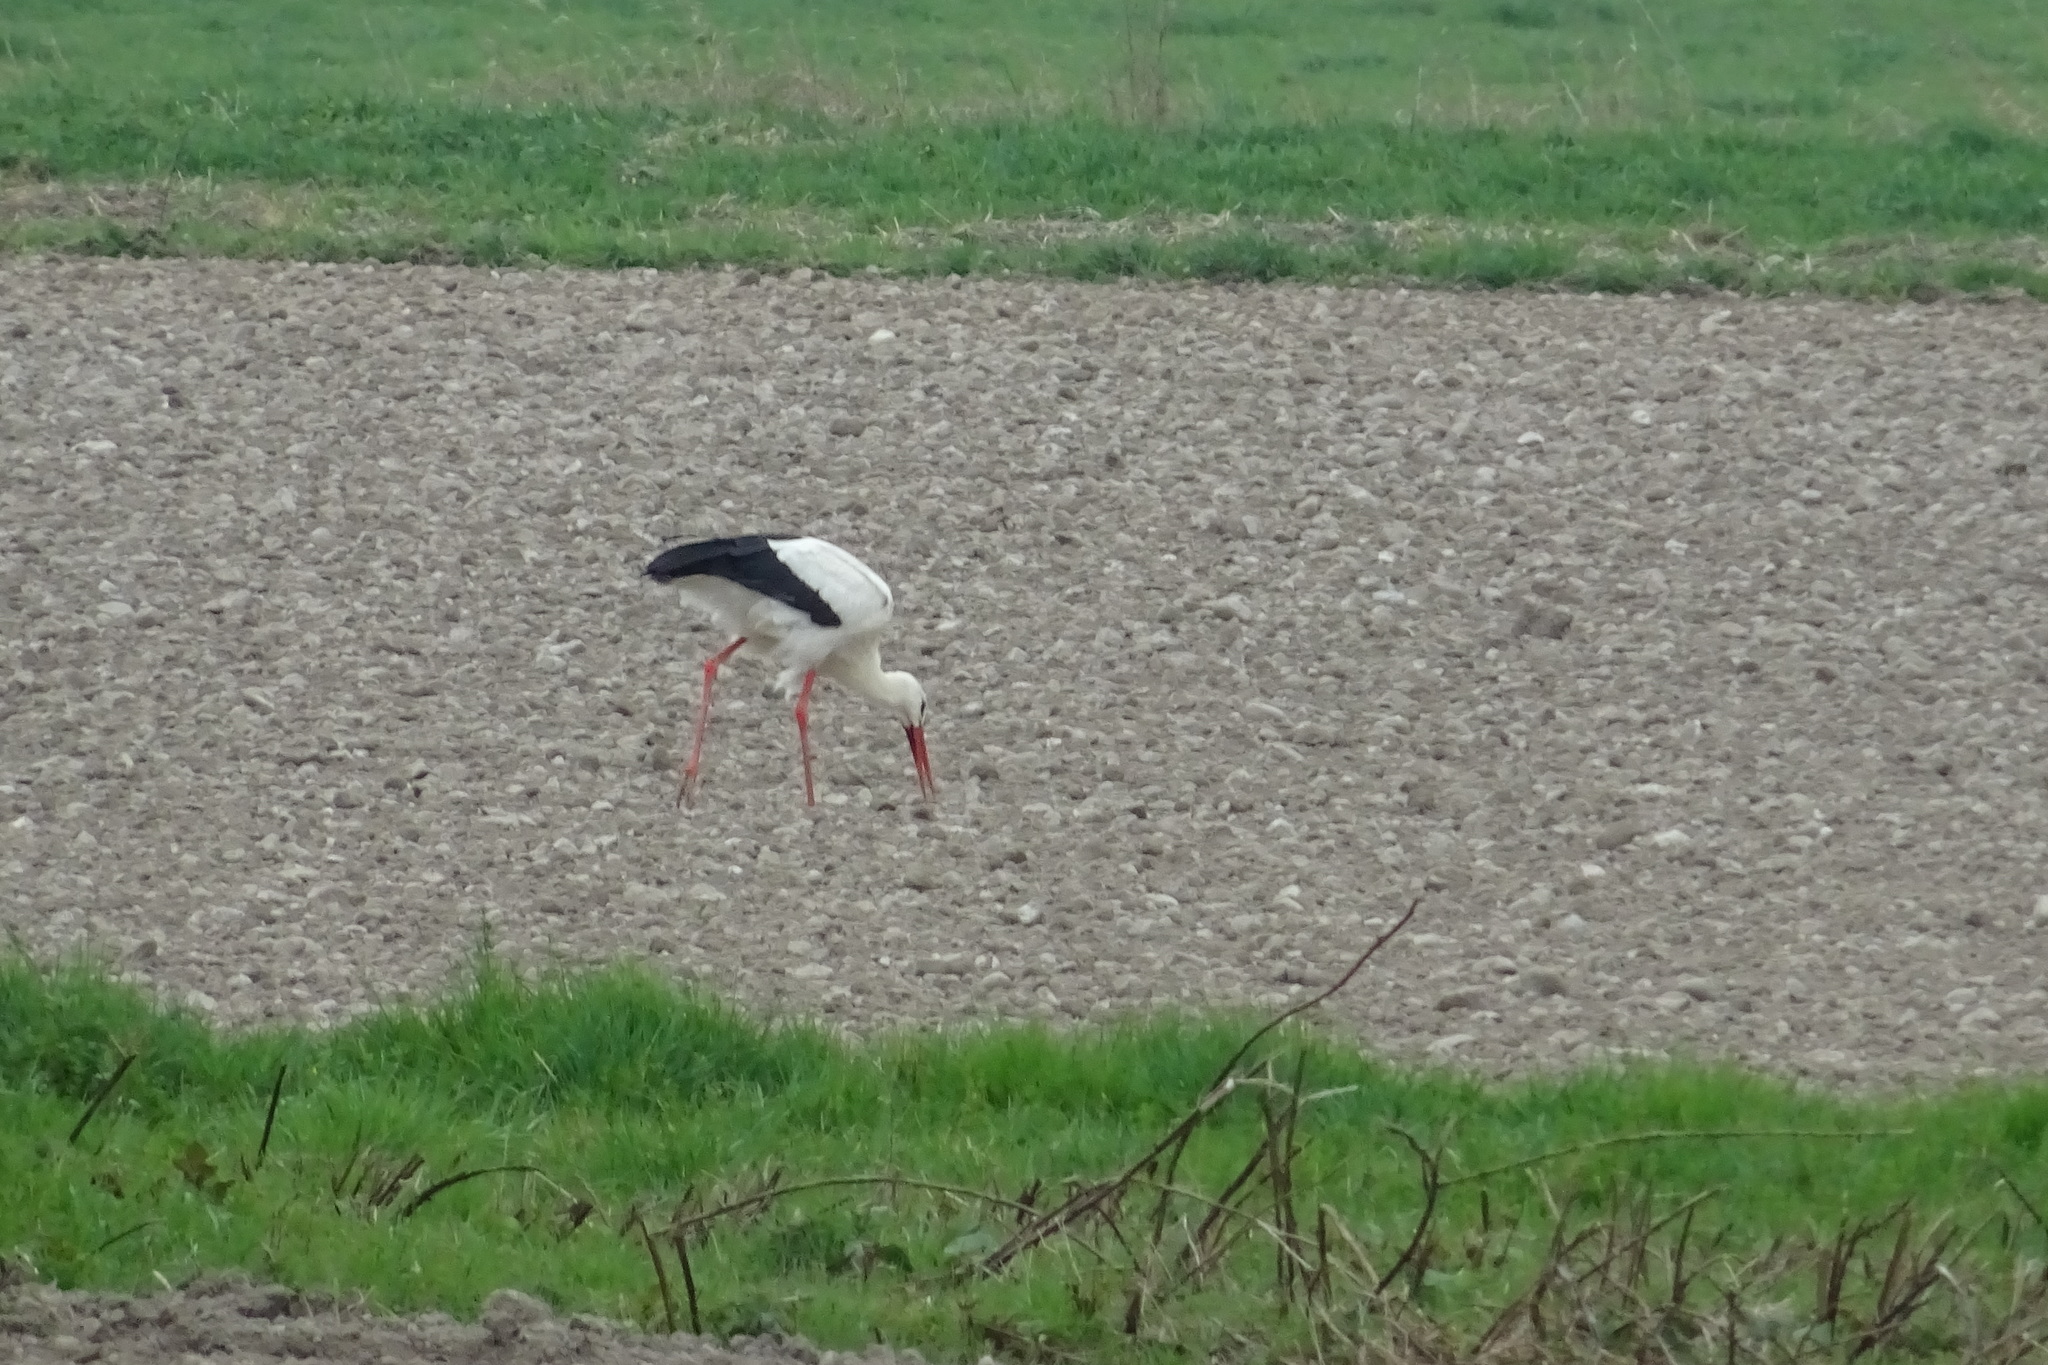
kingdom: Animalia
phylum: Chordata
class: Aves
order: Ciconiiformes
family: Ciconiidae
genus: Ciconia
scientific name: Ciconia ciconia
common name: White stork
